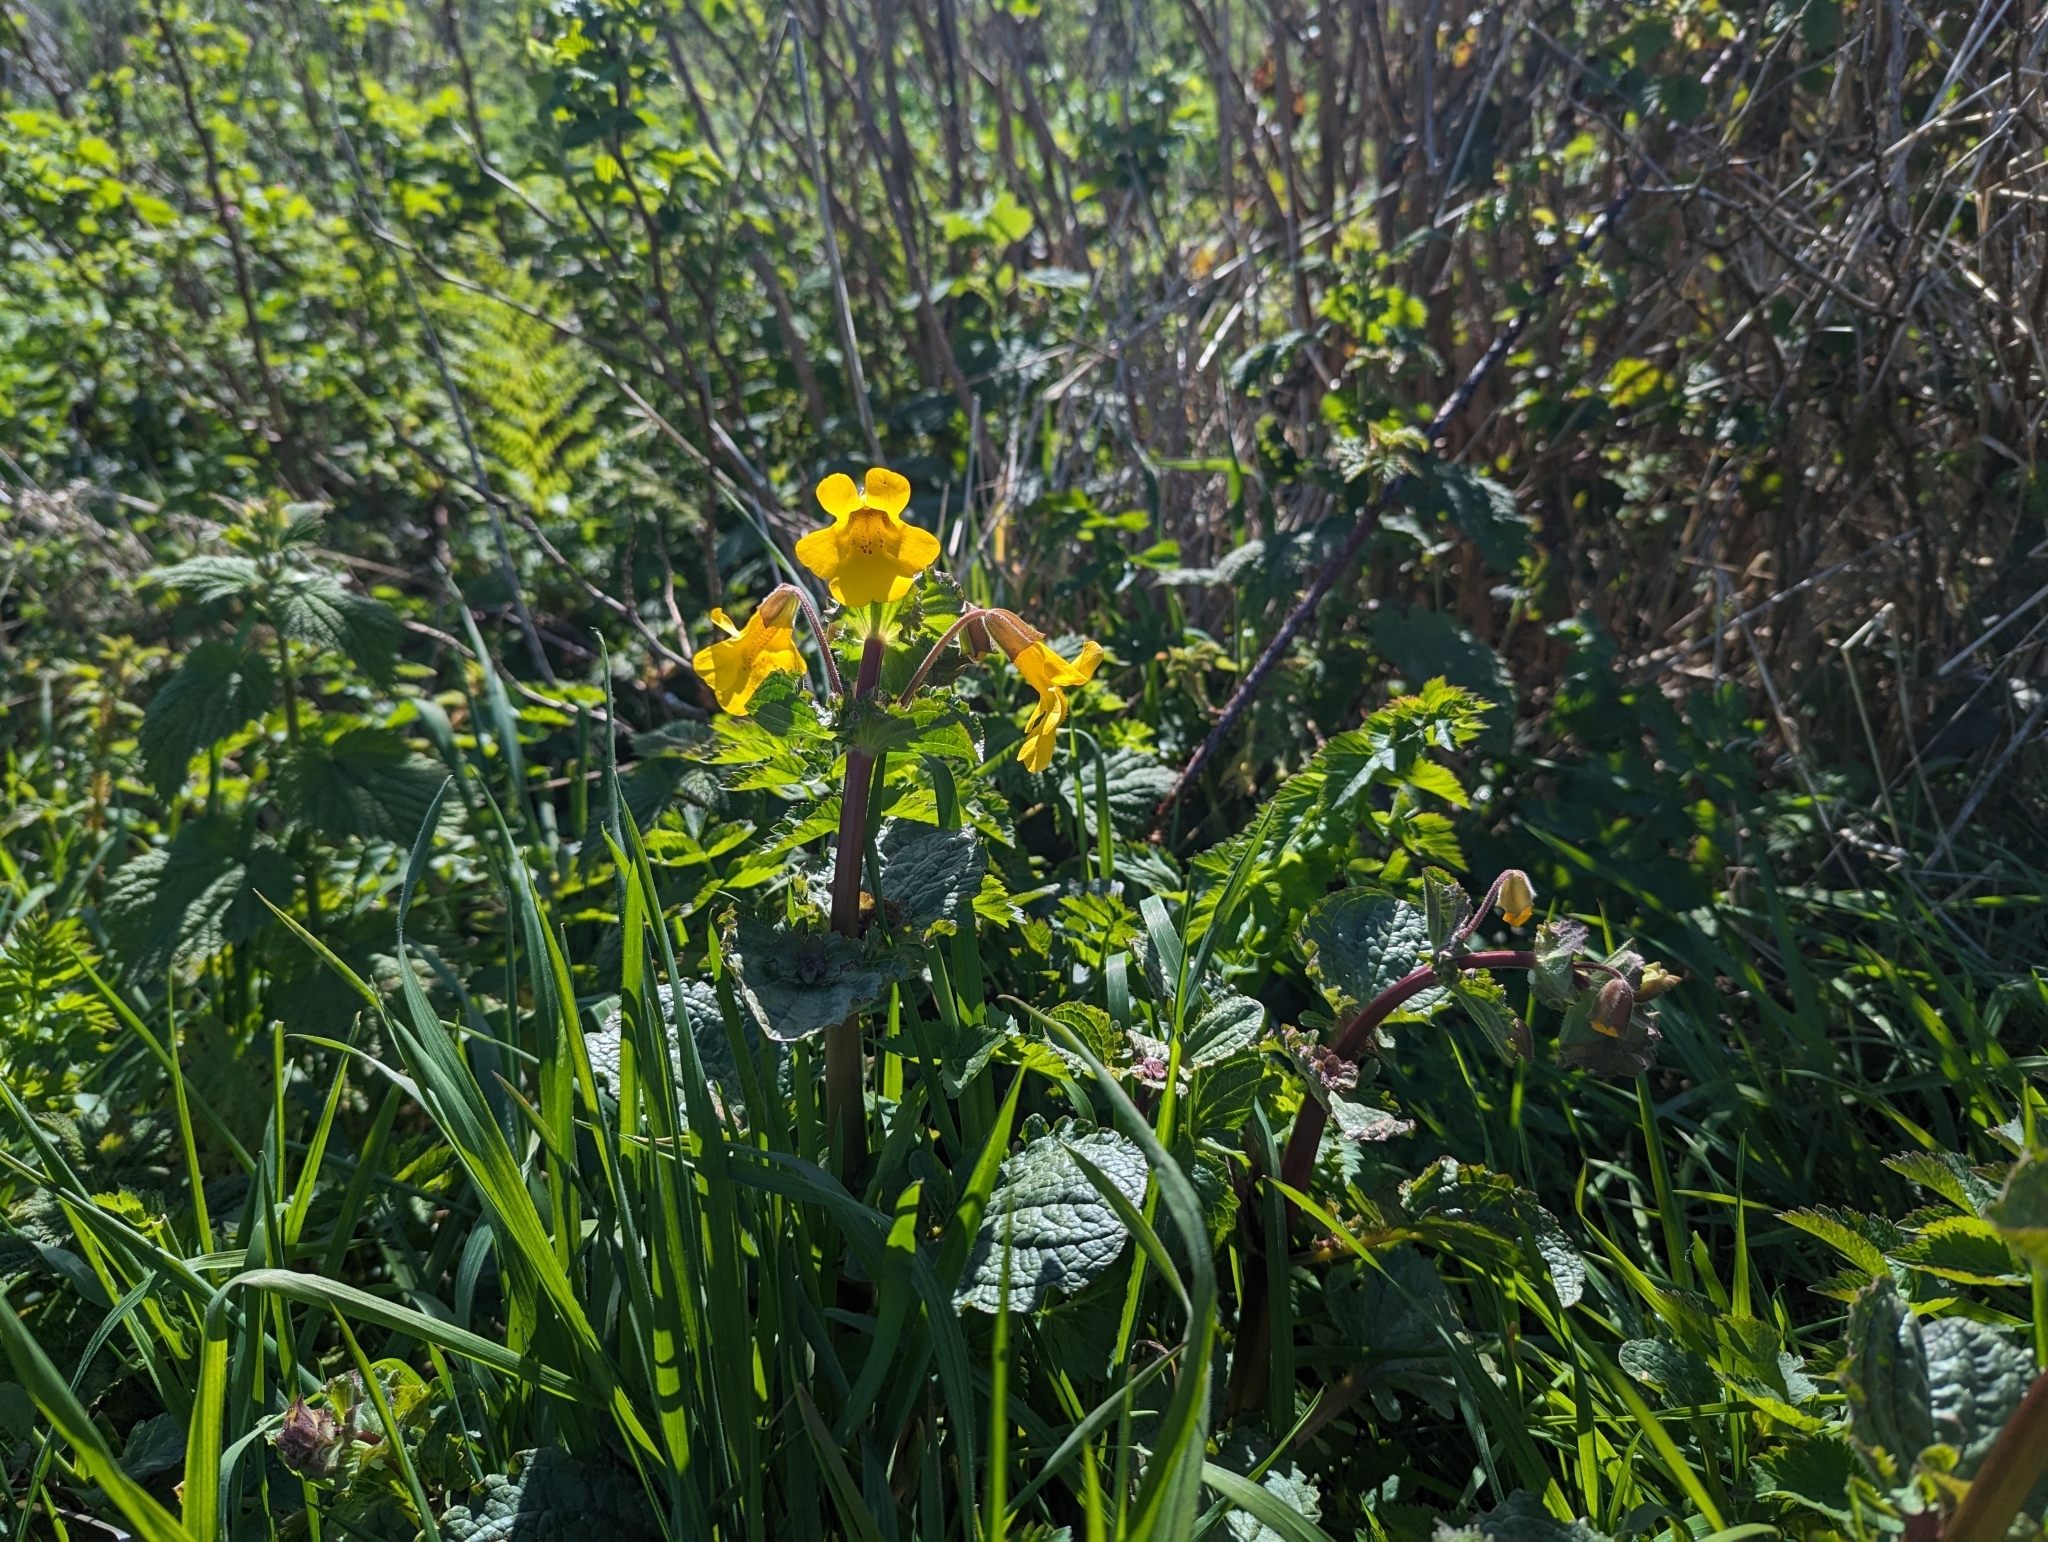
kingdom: Plantae
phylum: Tracheophyta
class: Magnoliopsida
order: Lamiales
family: Phrymaceae
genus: Erythranthe
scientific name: Erythranthe grandis
